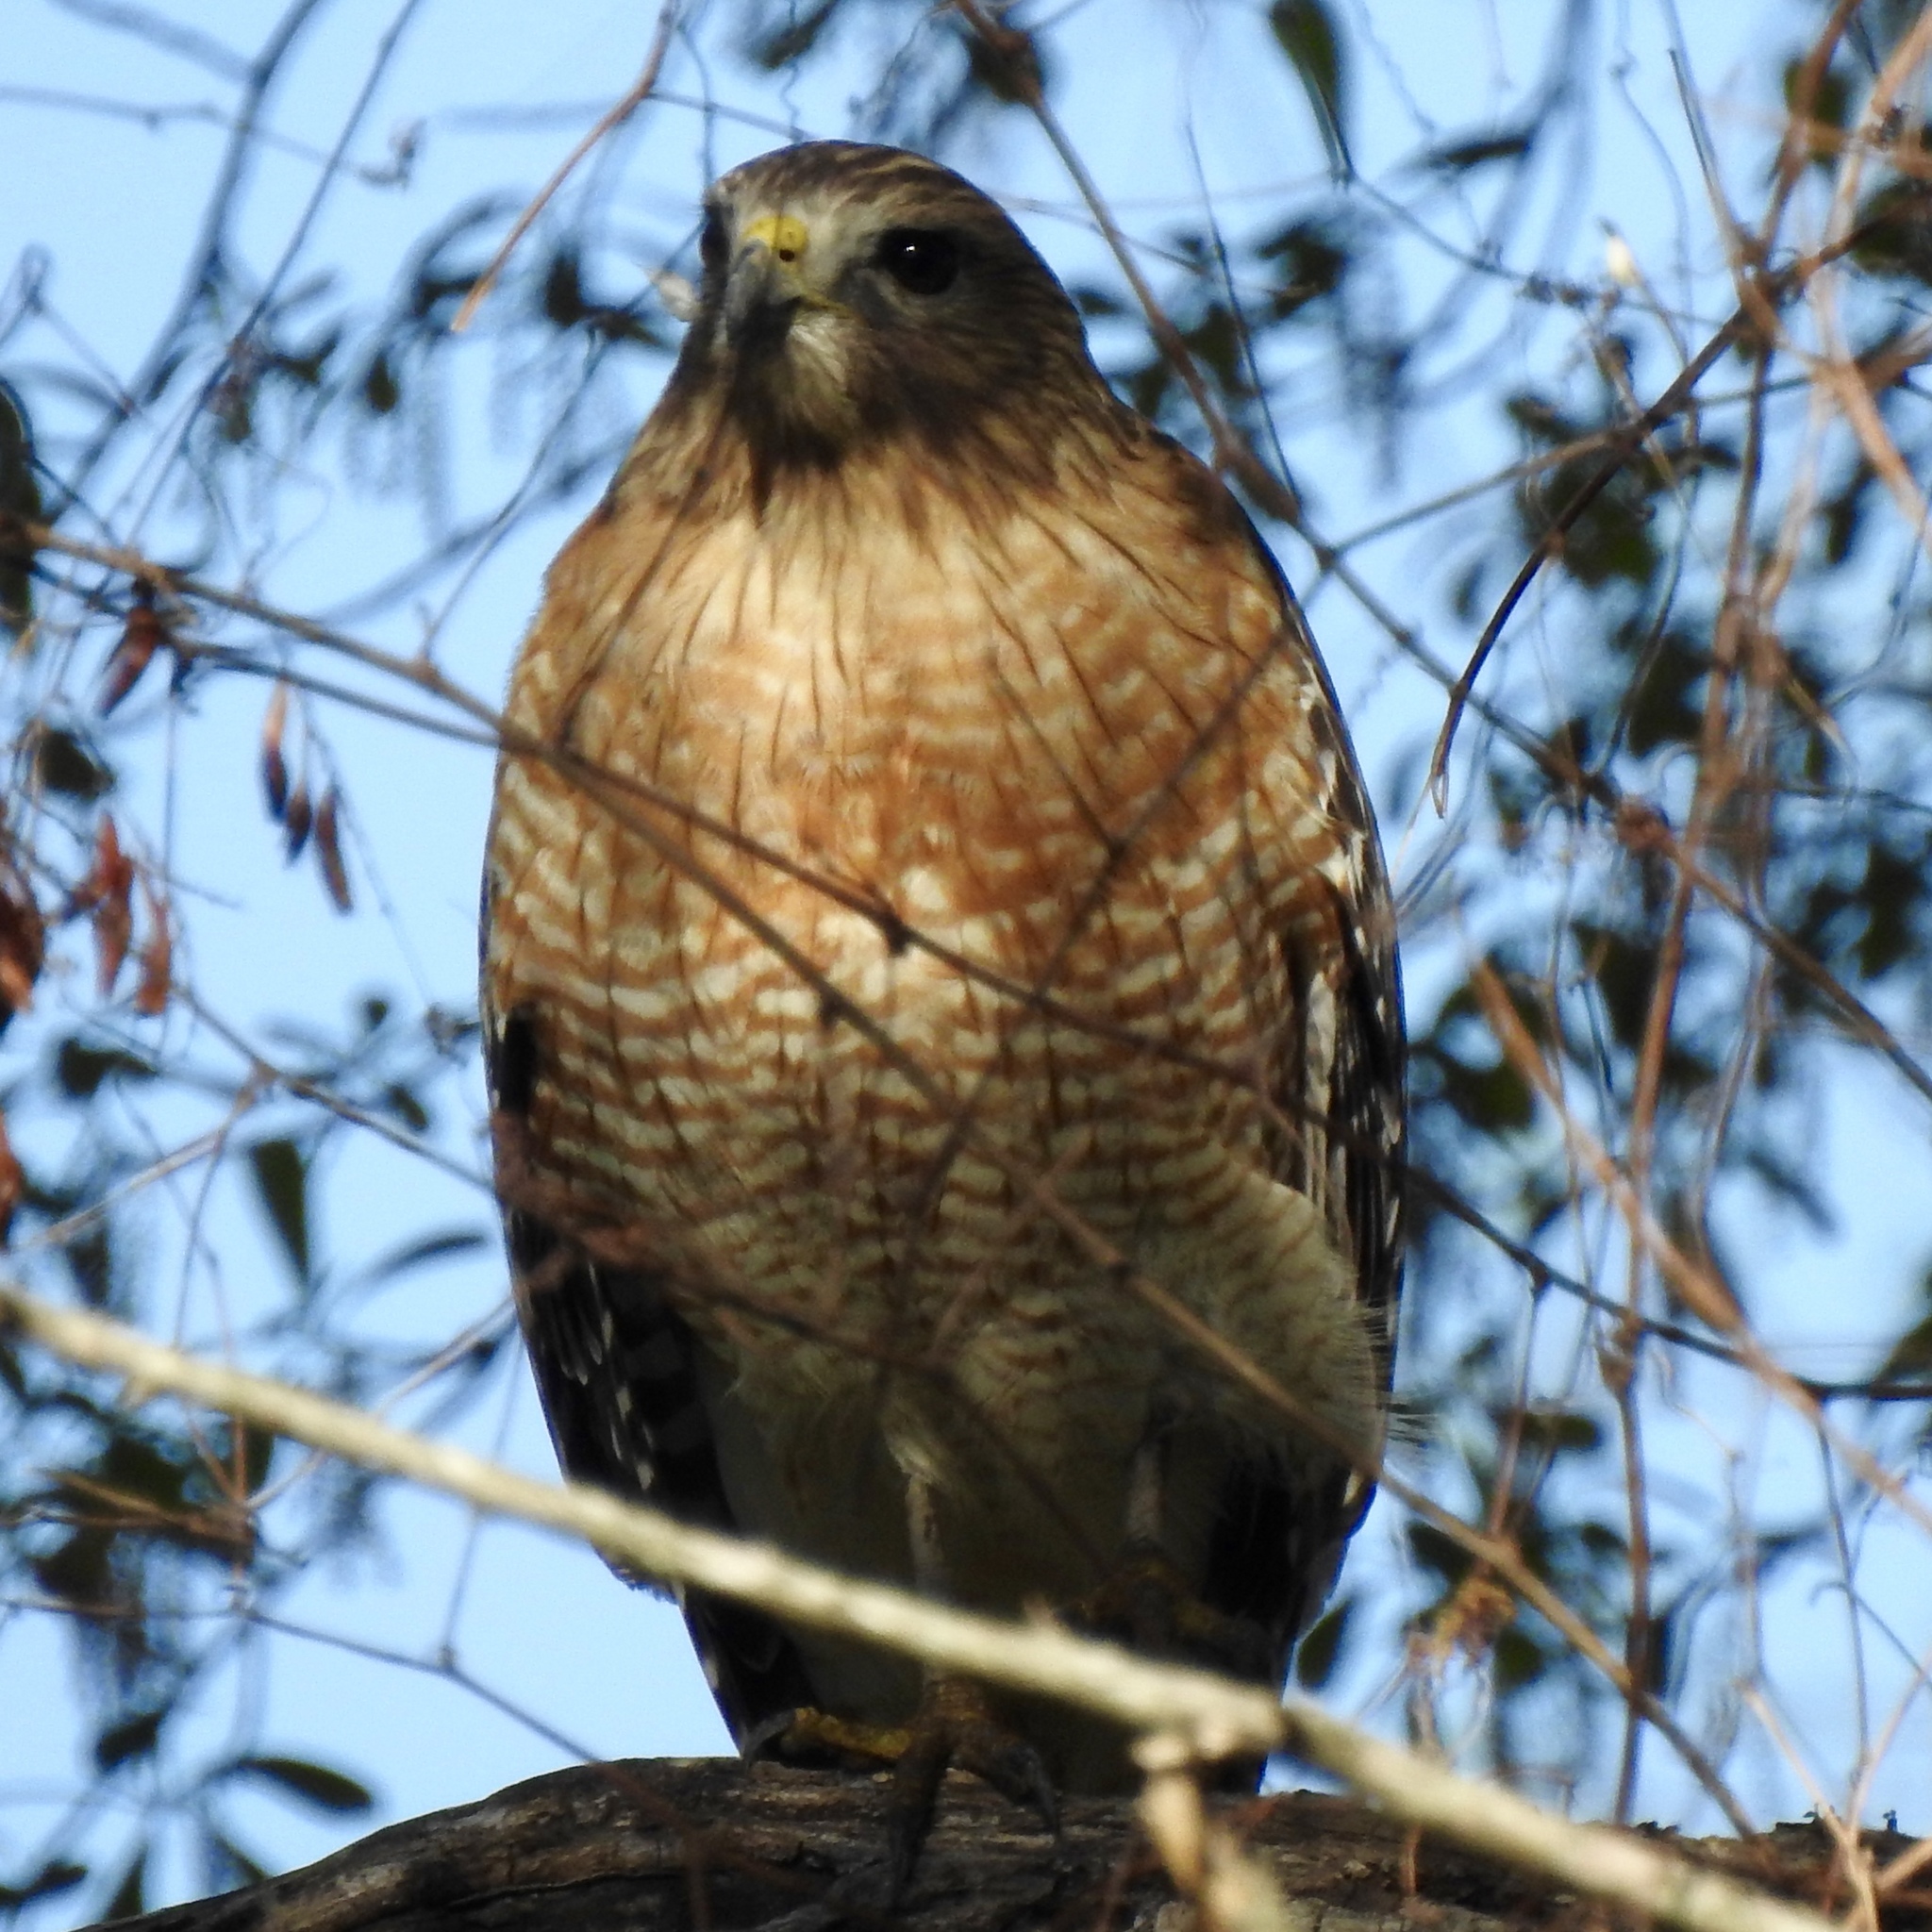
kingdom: Animalia
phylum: Chordata
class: Aves
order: Accipitriformes
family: Accipitridae
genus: Buteo
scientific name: Buteo lineatus
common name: Red-shouldered hawk
